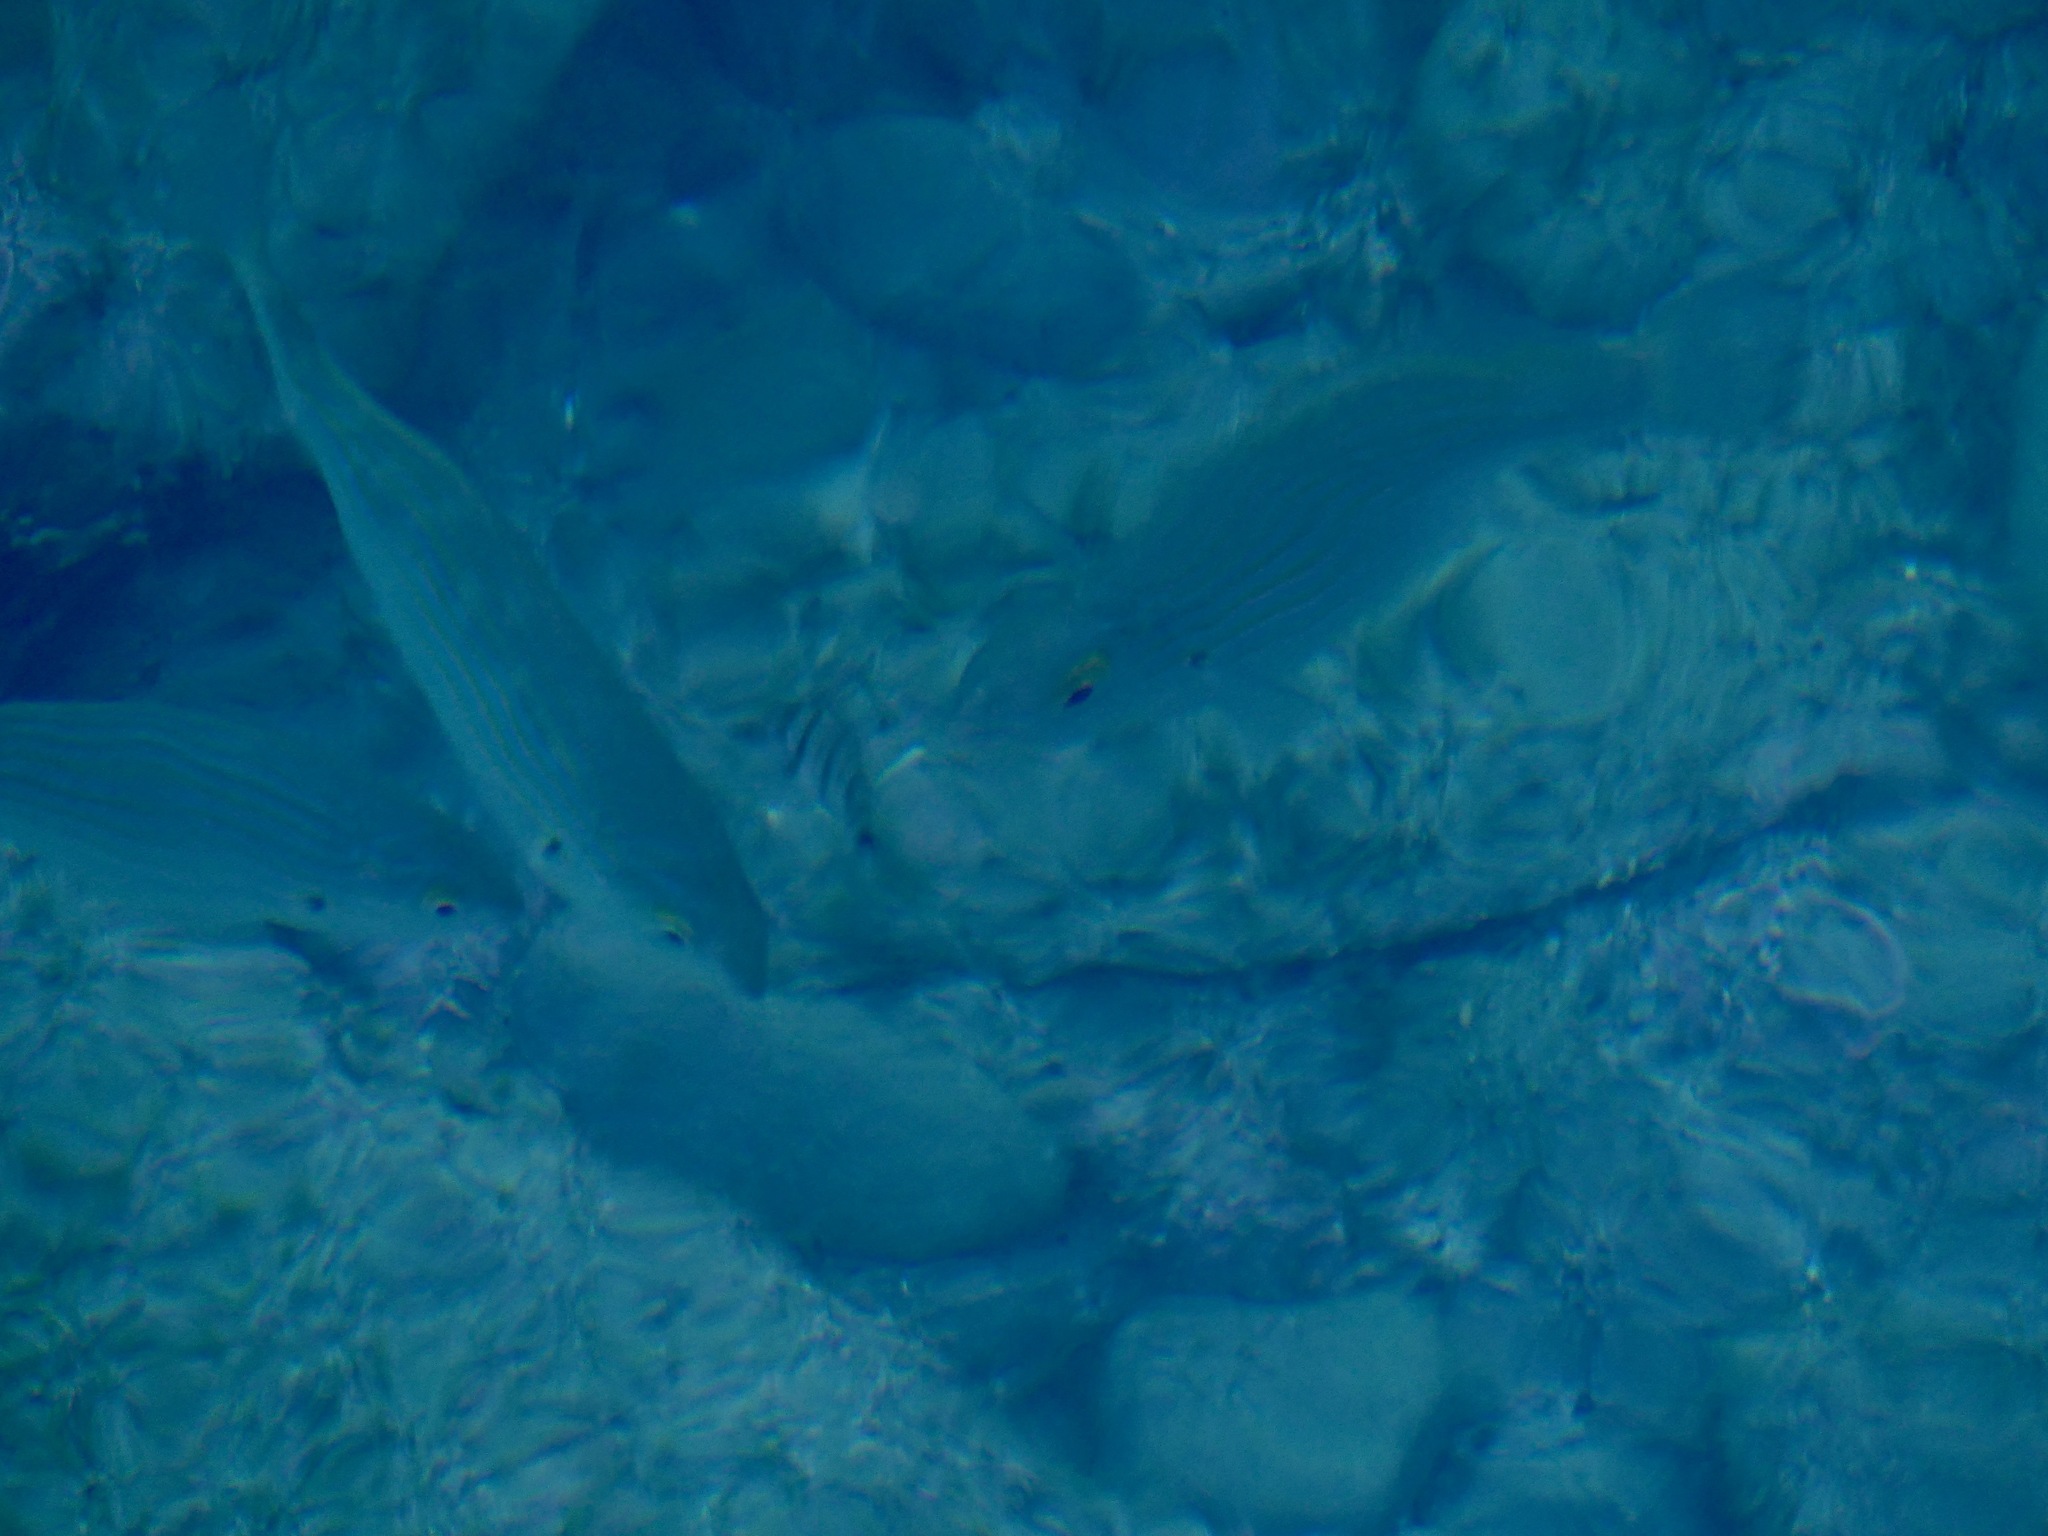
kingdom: Animalia
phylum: Chordata
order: Perciformes
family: Sparidae
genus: Sarpa
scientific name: Sarpa salpa
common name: Salema
